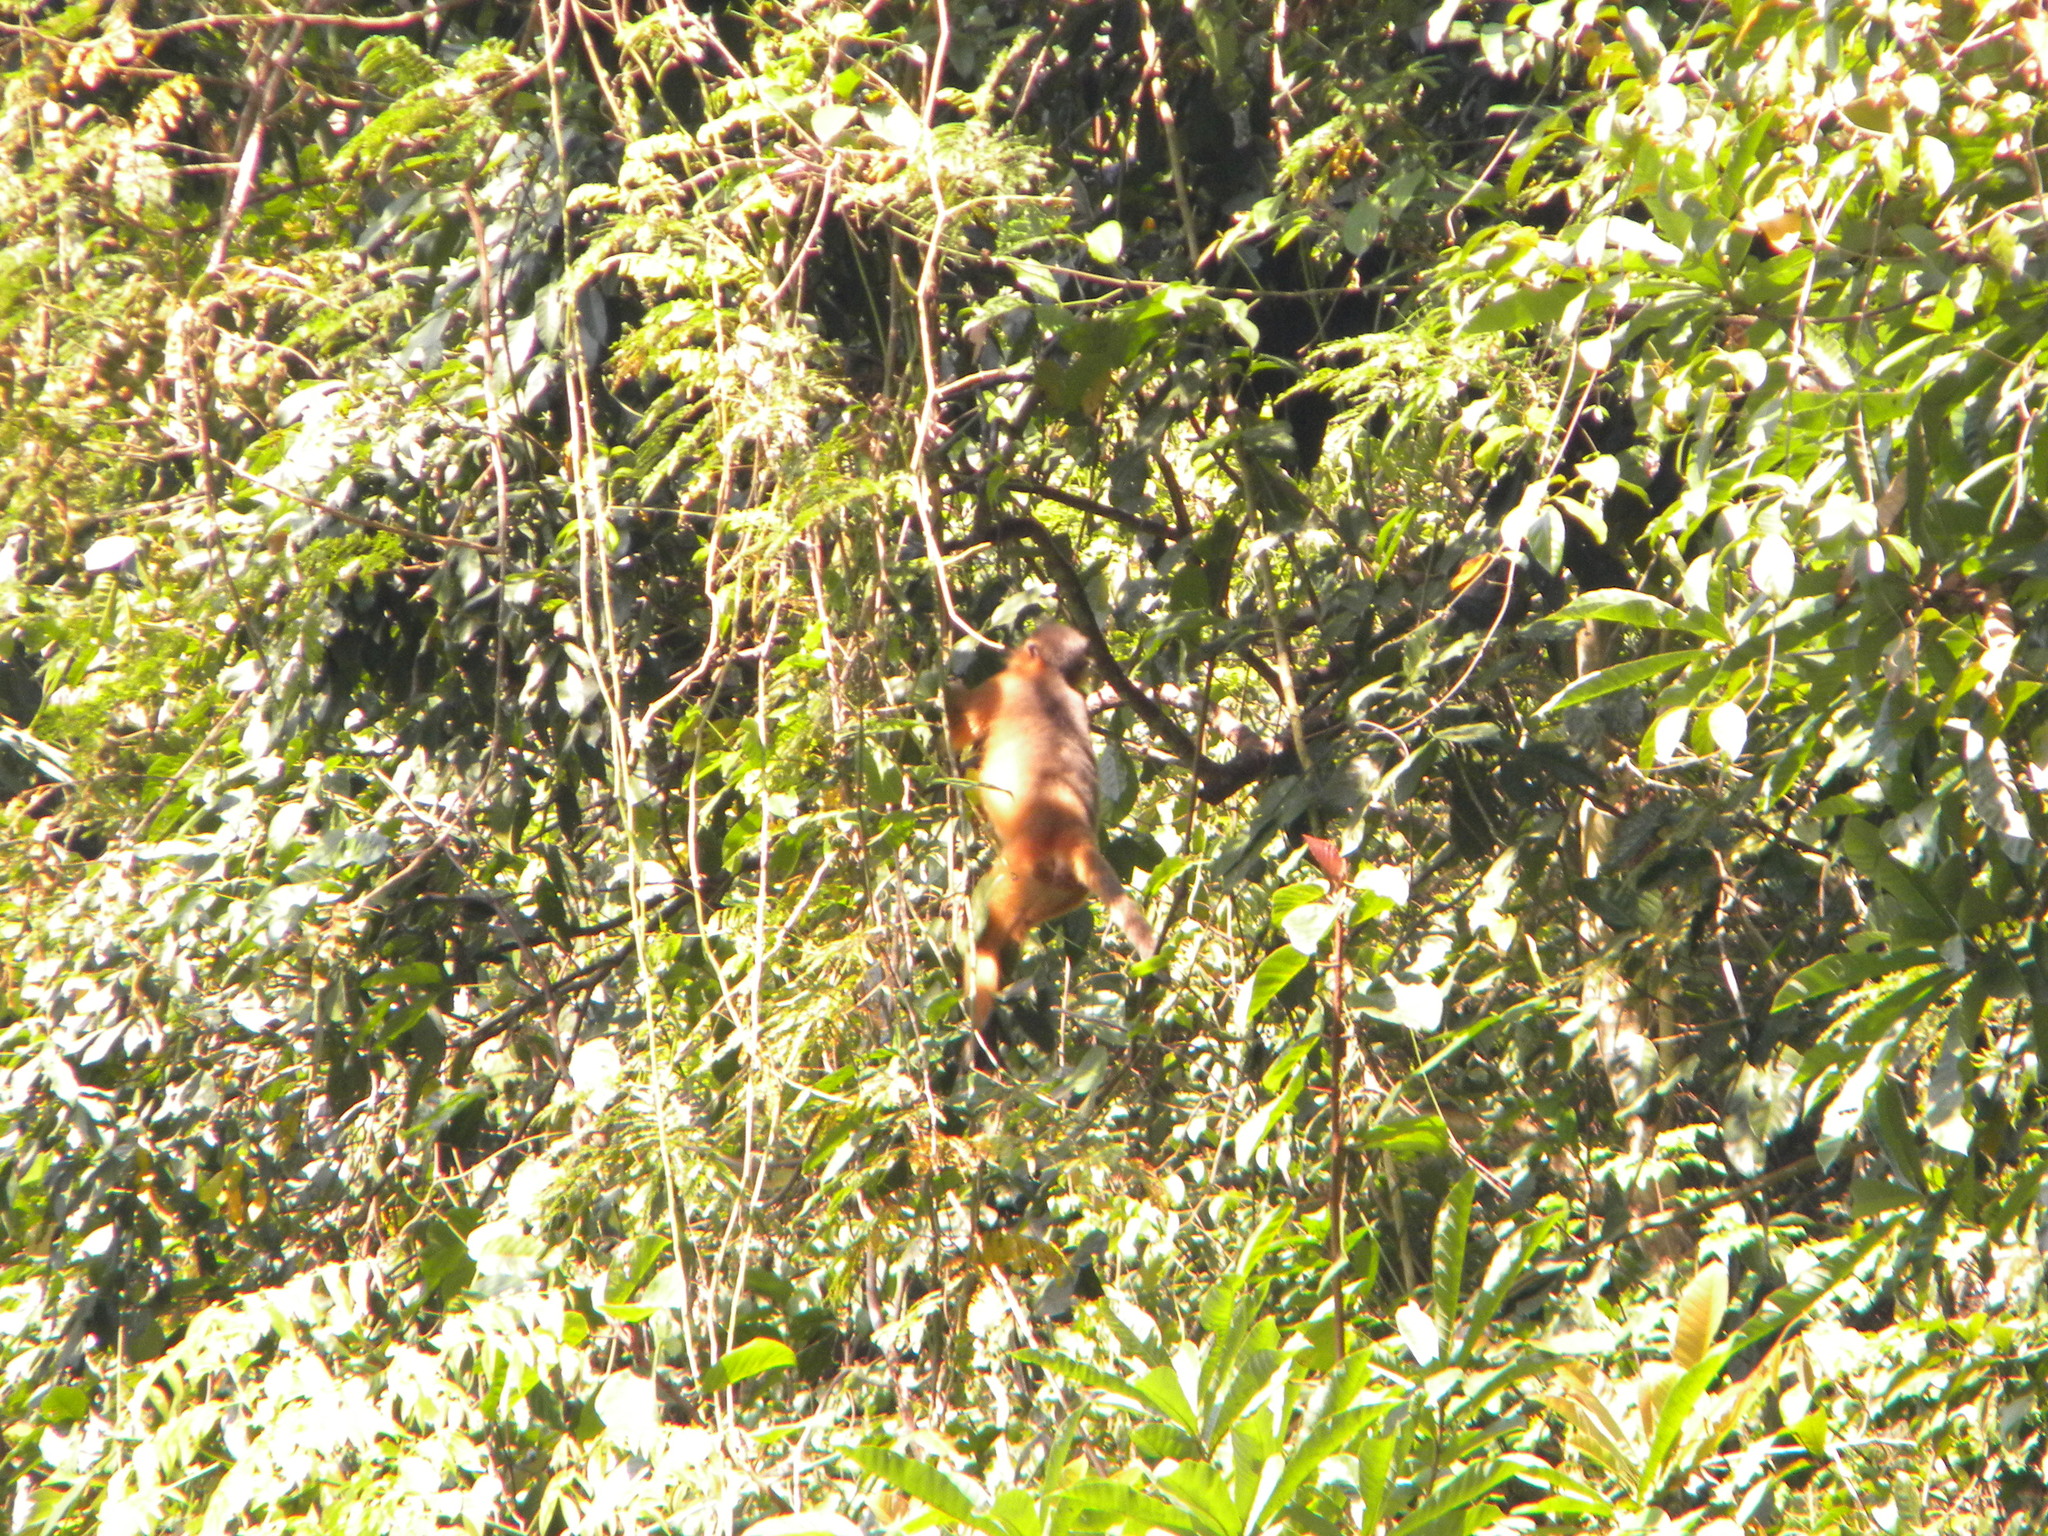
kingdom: Animalia
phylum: Chordata
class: Mammalia
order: Primates
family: Cercopithecidae
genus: Trachypithecus
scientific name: Trachypithecus pileatus
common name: Capped langur
